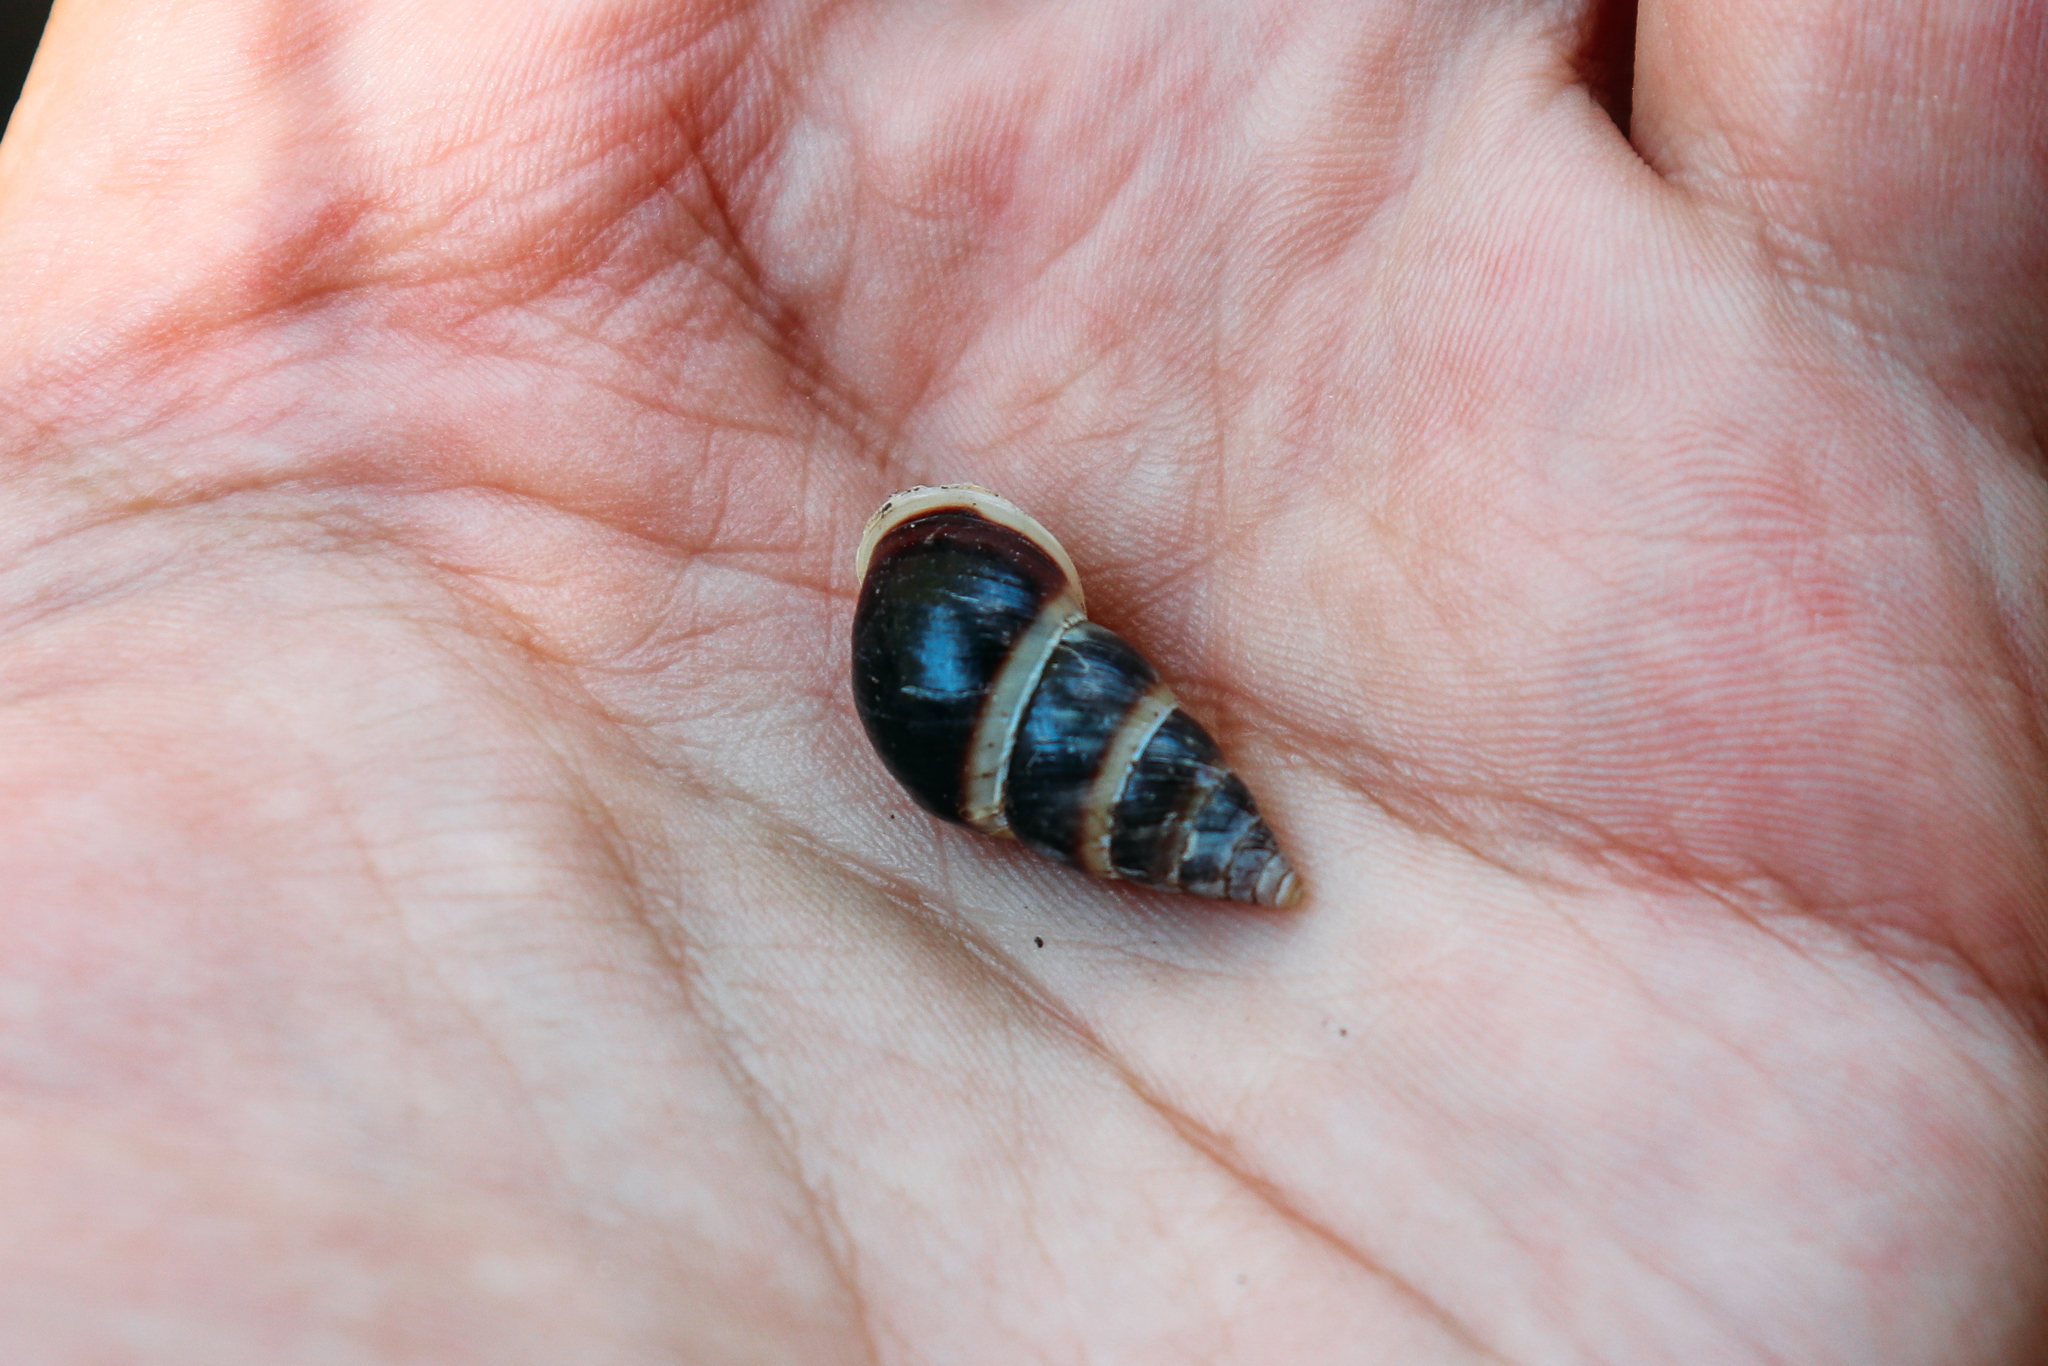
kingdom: Animalia
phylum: Mollusca
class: Gastropoda
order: Stylommatophora
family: Enidae
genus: Caucasicola
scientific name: Caucasicola raddei
